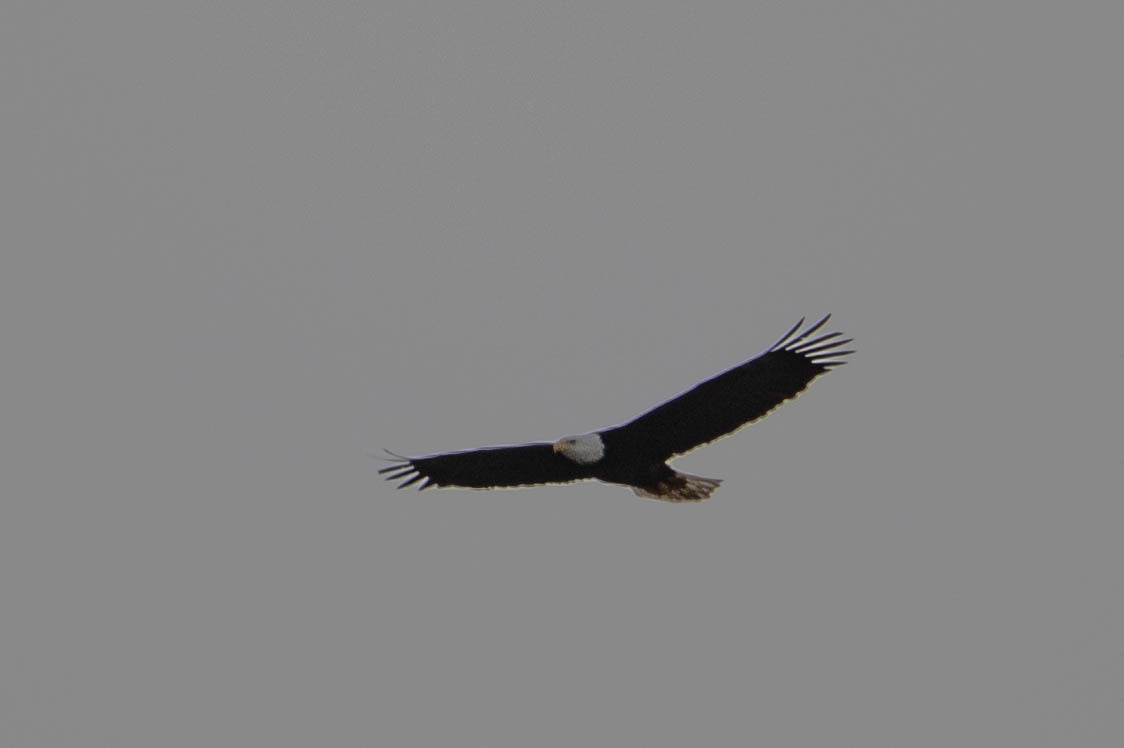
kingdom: Animalia
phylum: Chordata
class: Aves
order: Accipitriformes
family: Accipitridae
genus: Haliaeetus
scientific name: Haliaeetus leucocephalus
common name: Bald eagle
